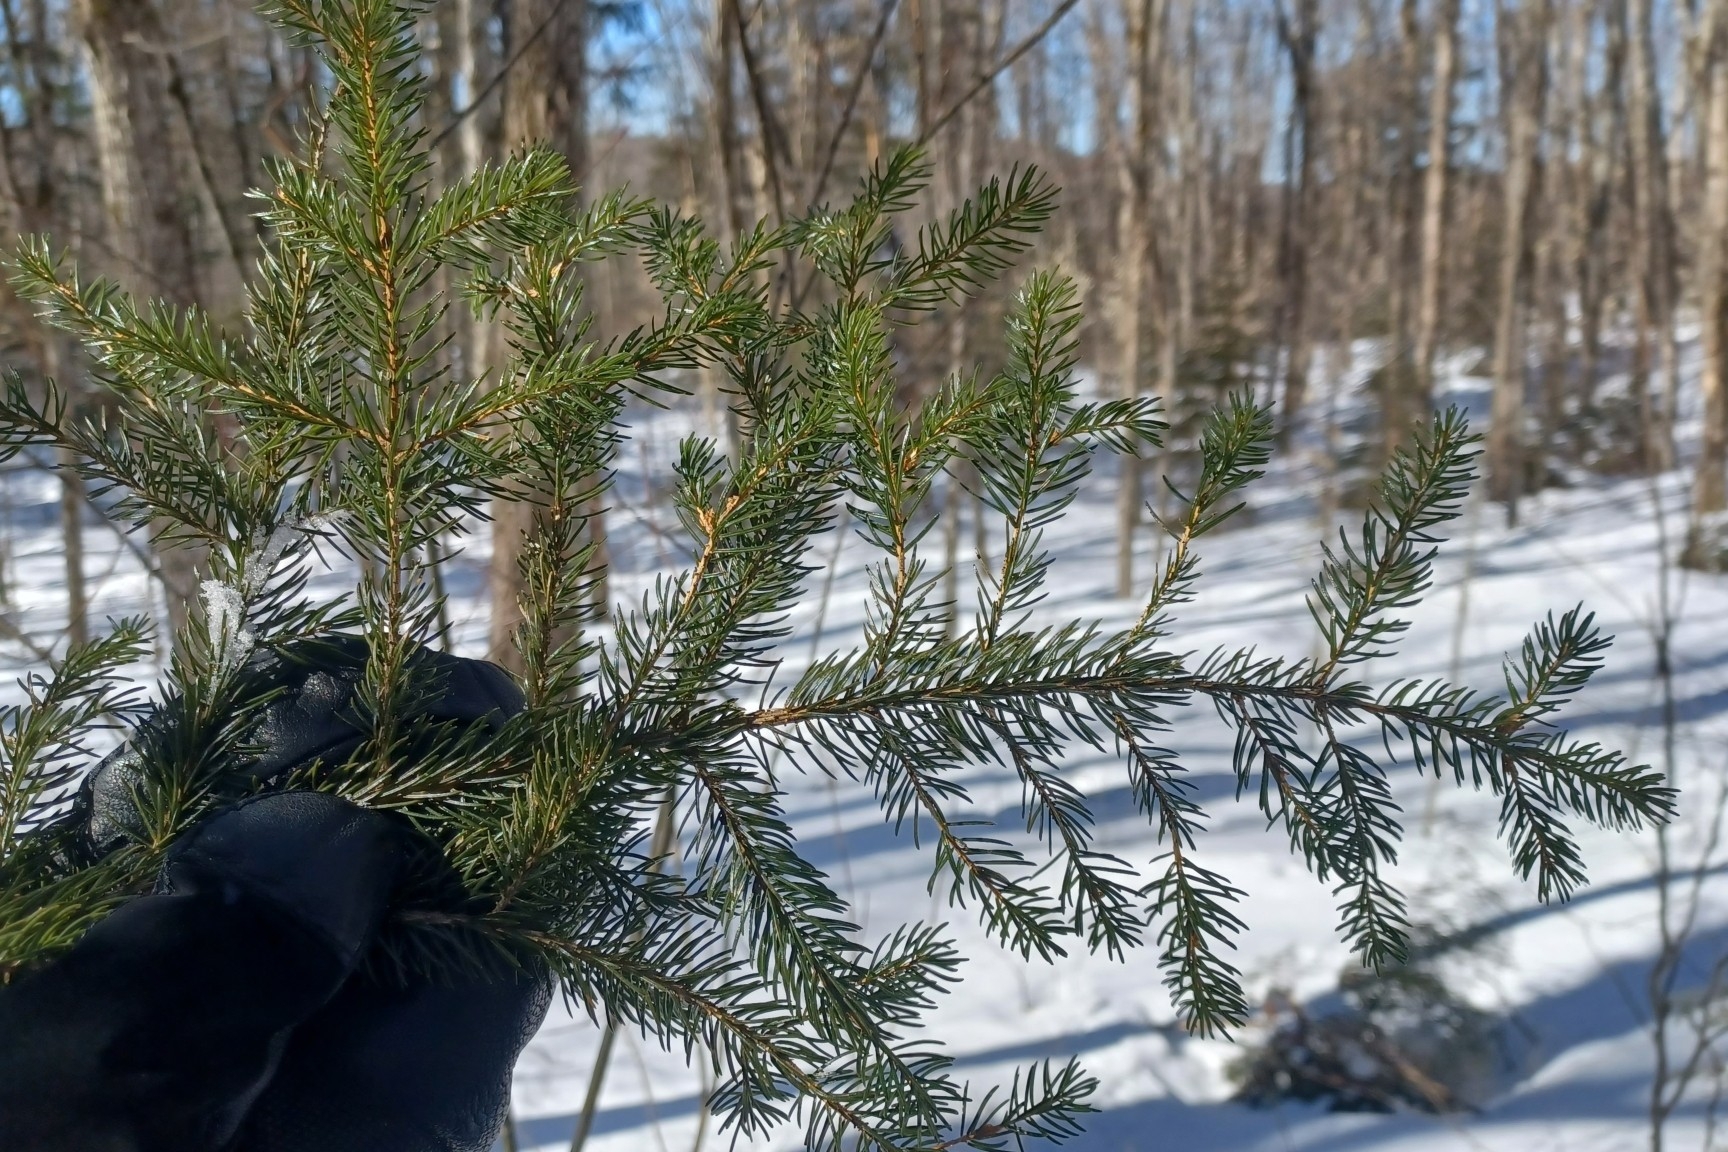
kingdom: Plantae
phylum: Tracheophyta
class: Pinopsida
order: Pinales
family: Pinaceae
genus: Picea
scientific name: Picea rubens
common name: Red spruce
